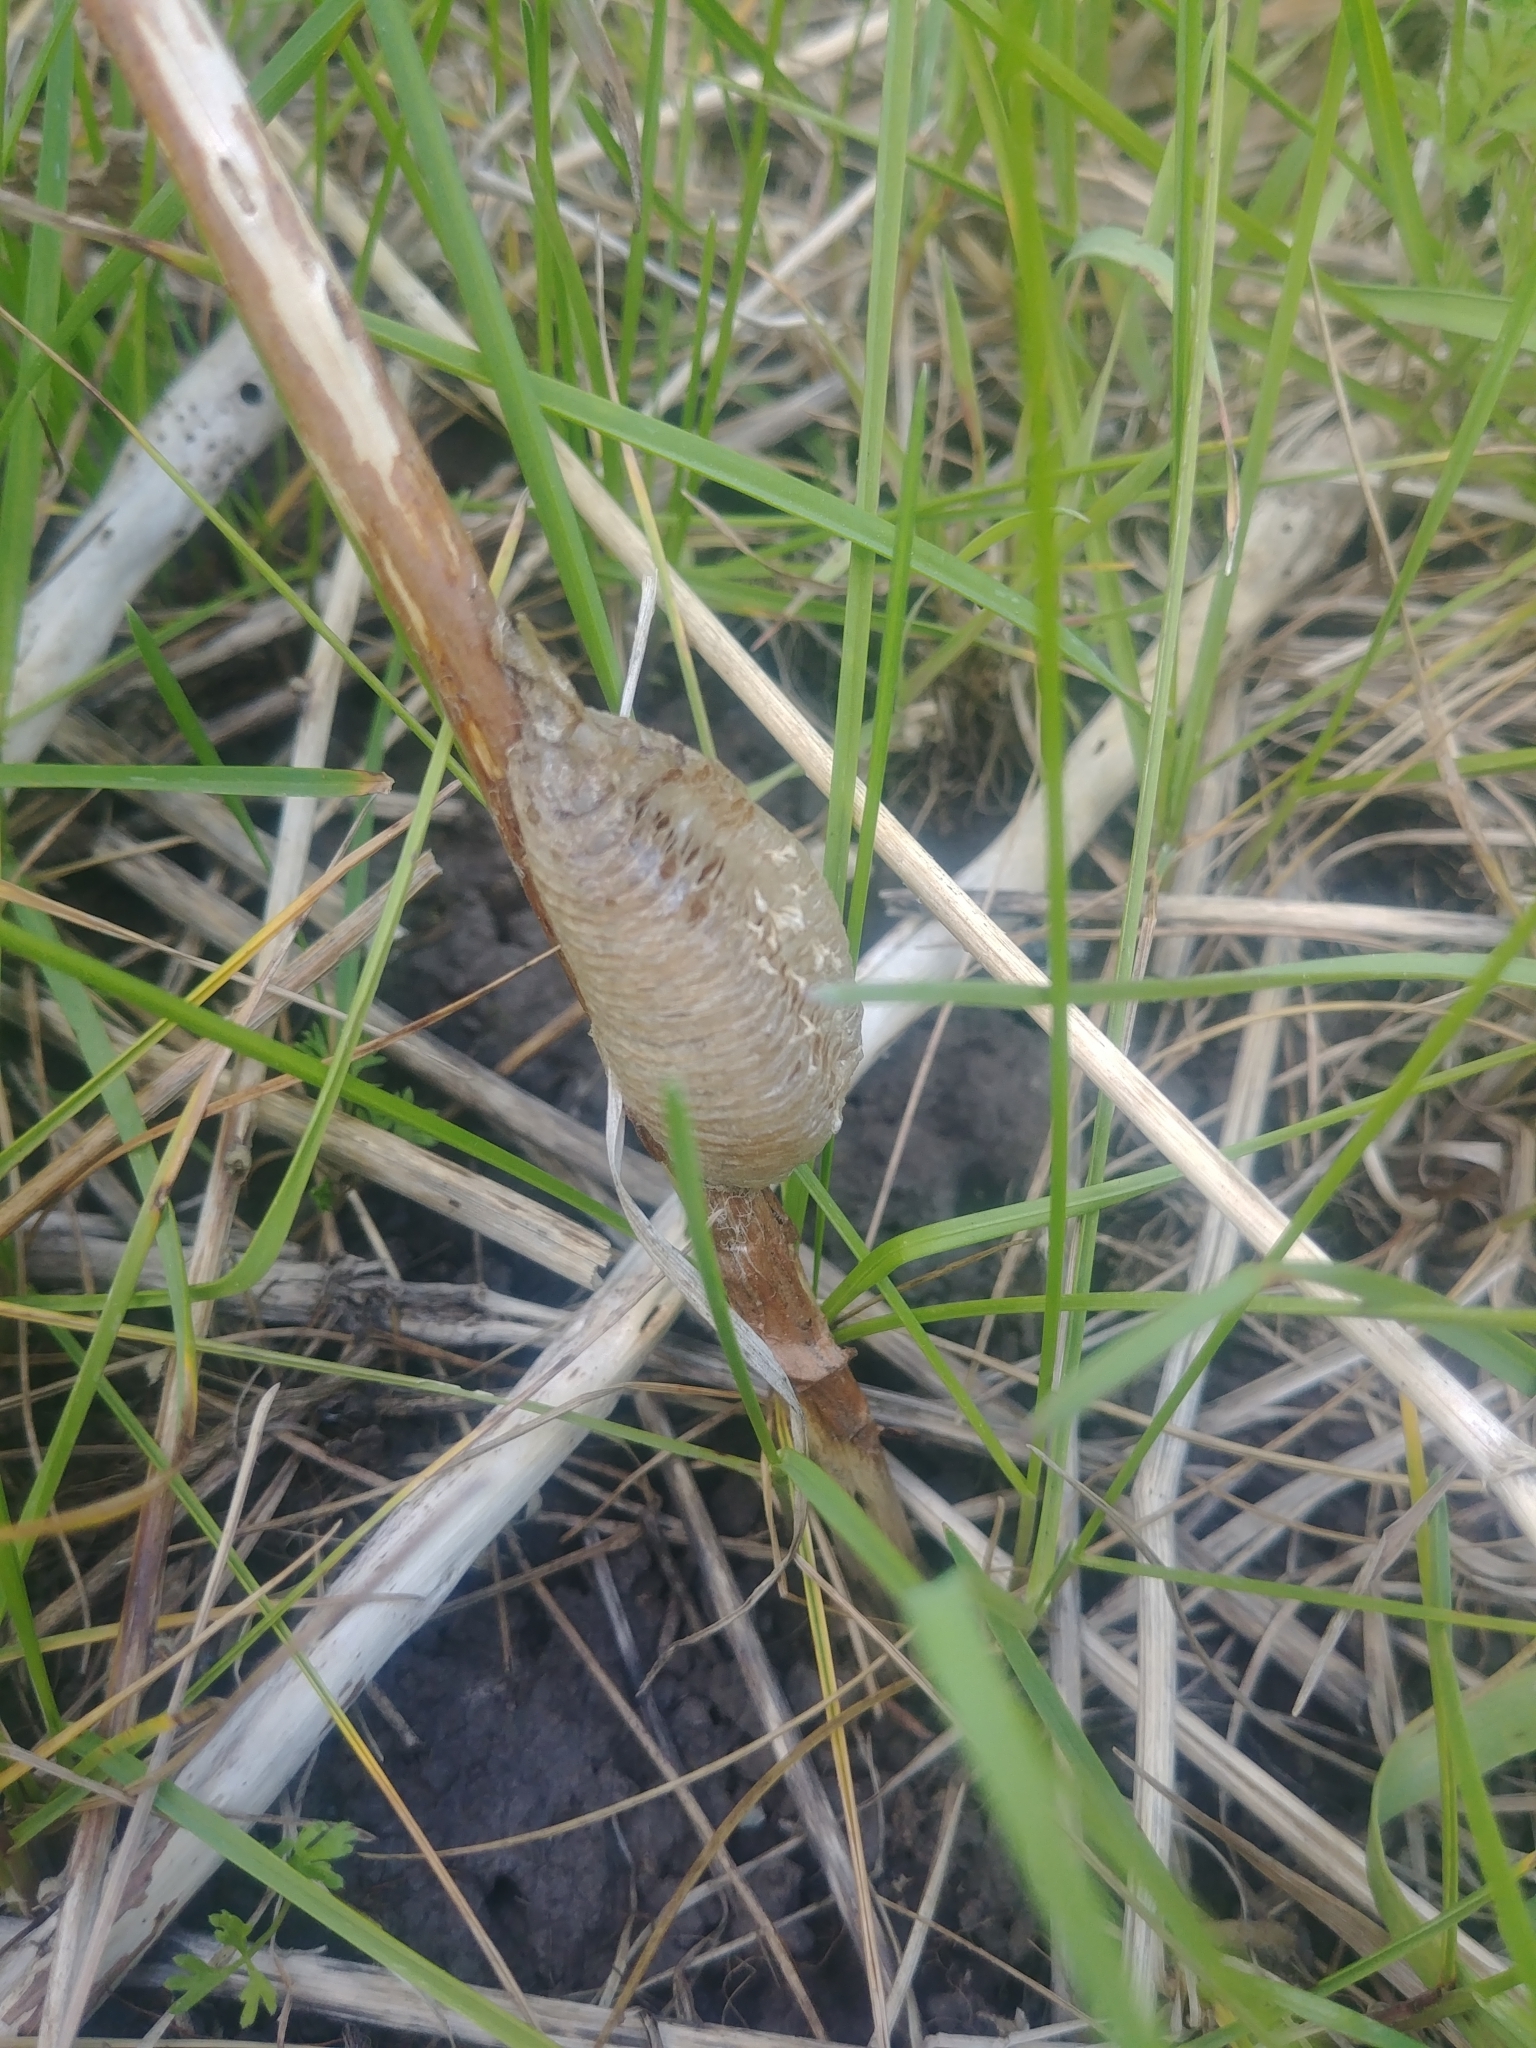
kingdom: Animalia
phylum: Arthropoda
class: Insecta
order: Mantodea
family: Mantidae
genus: Mantis
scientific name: Mantis religiosa
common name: Praying mantis
